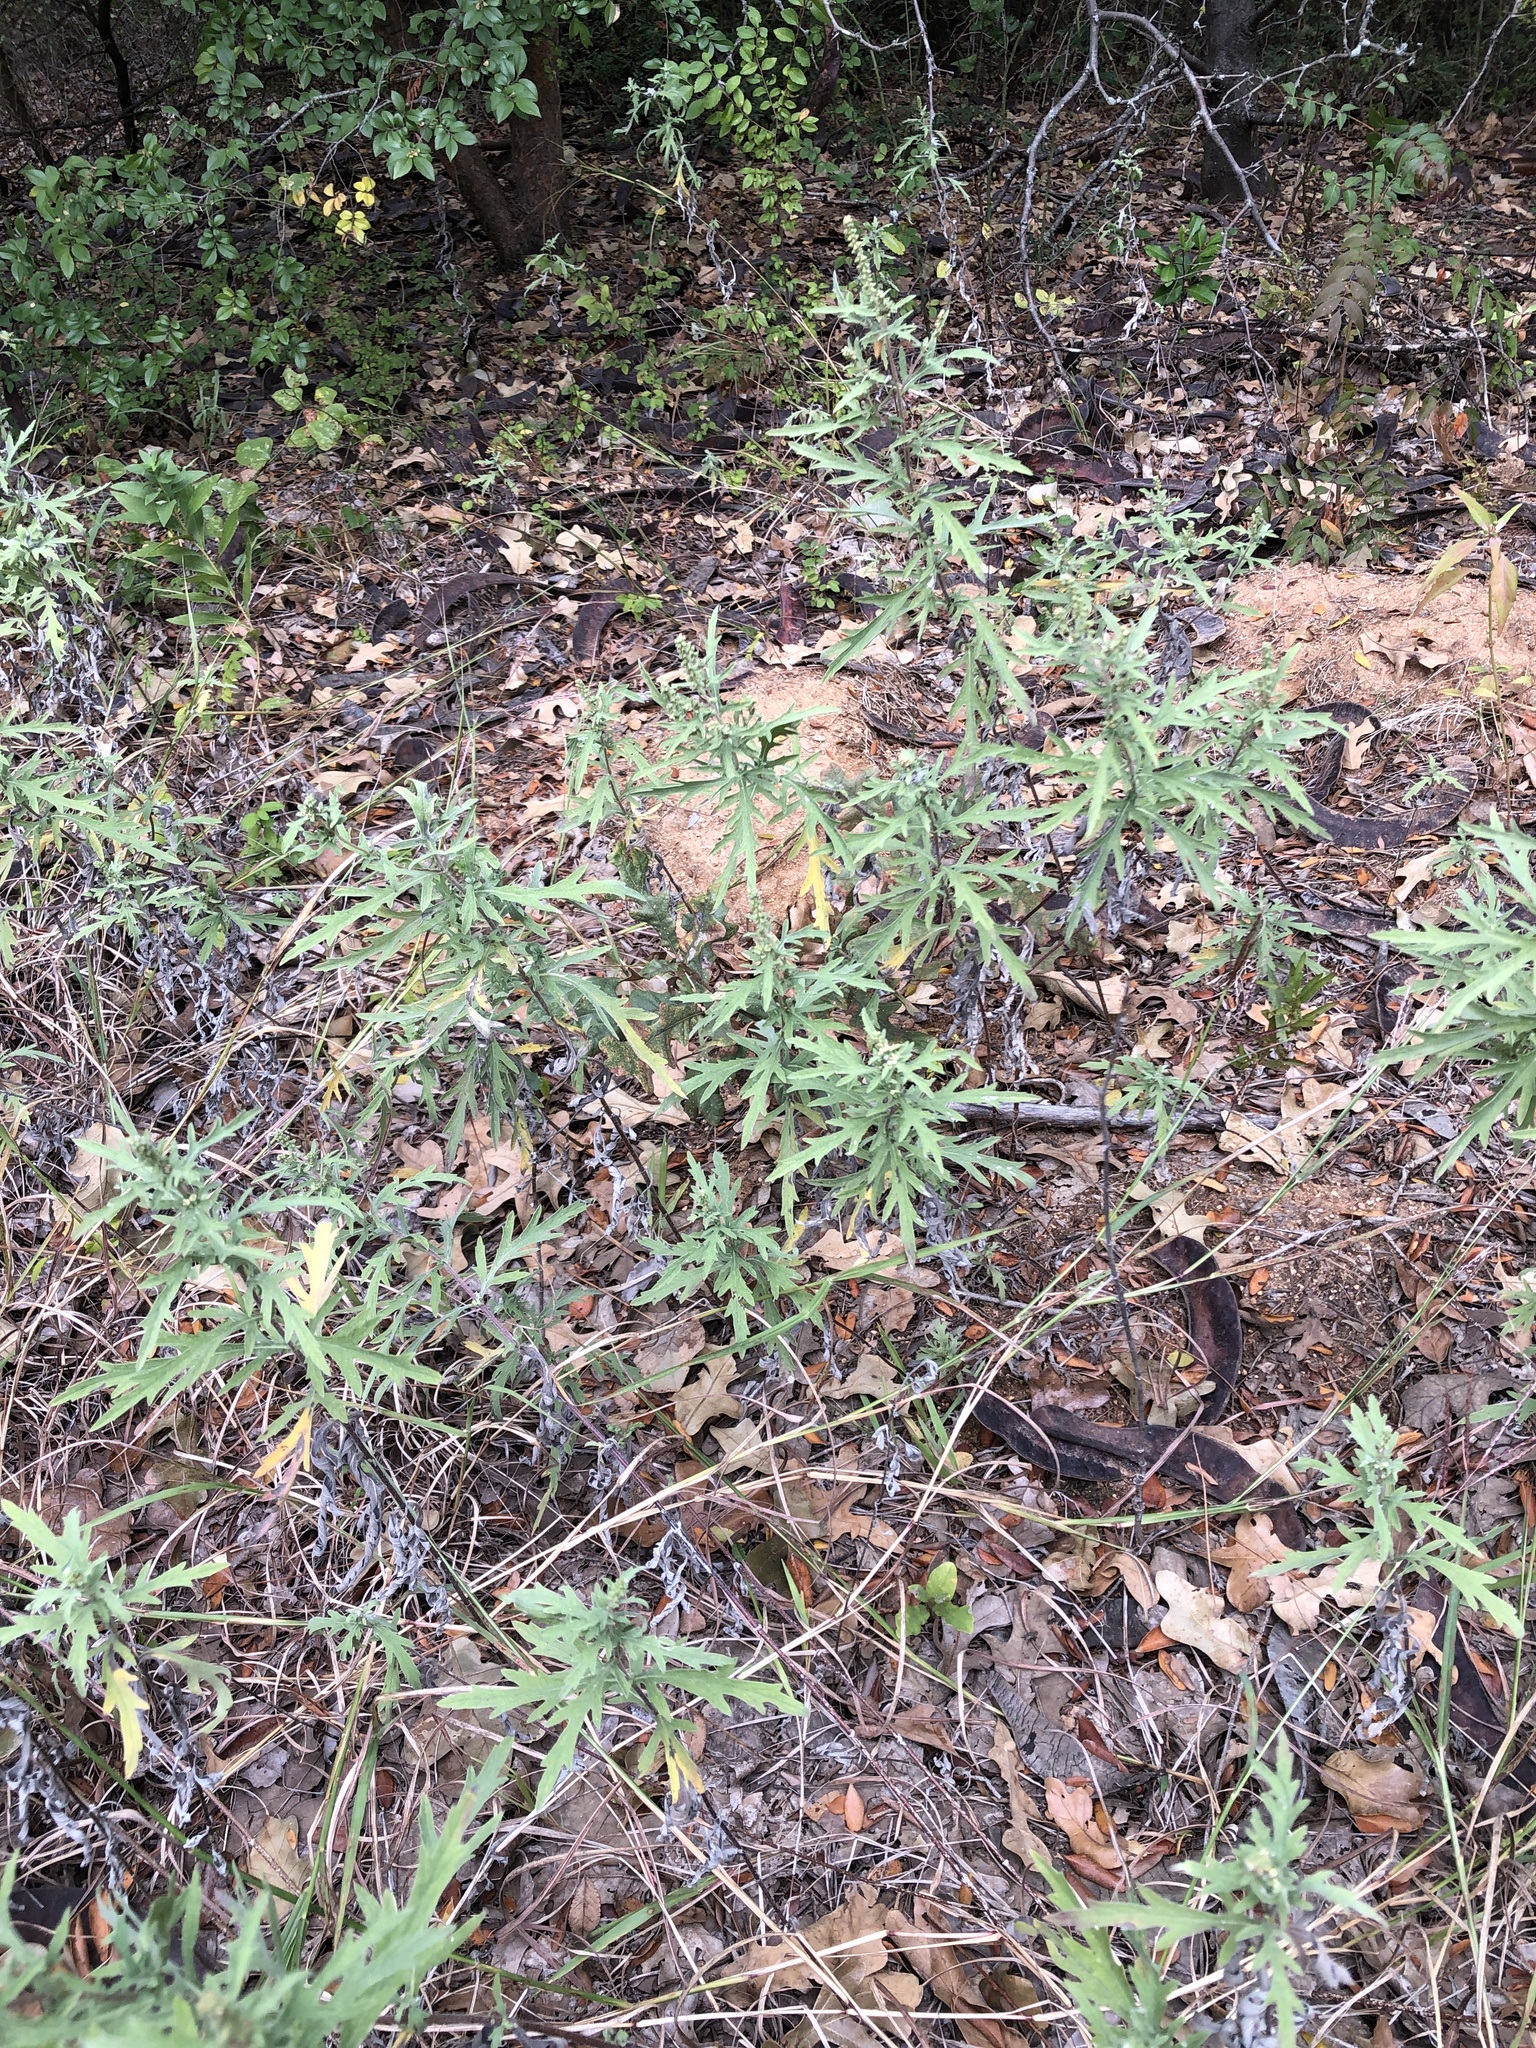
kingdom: Plantae
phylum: Tracheophyta
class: Magnoliopsida
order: Asterales
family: Asteraceae
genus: Ambrosia
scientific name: Ambrosia psilostachya
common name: Perennial ragweed
